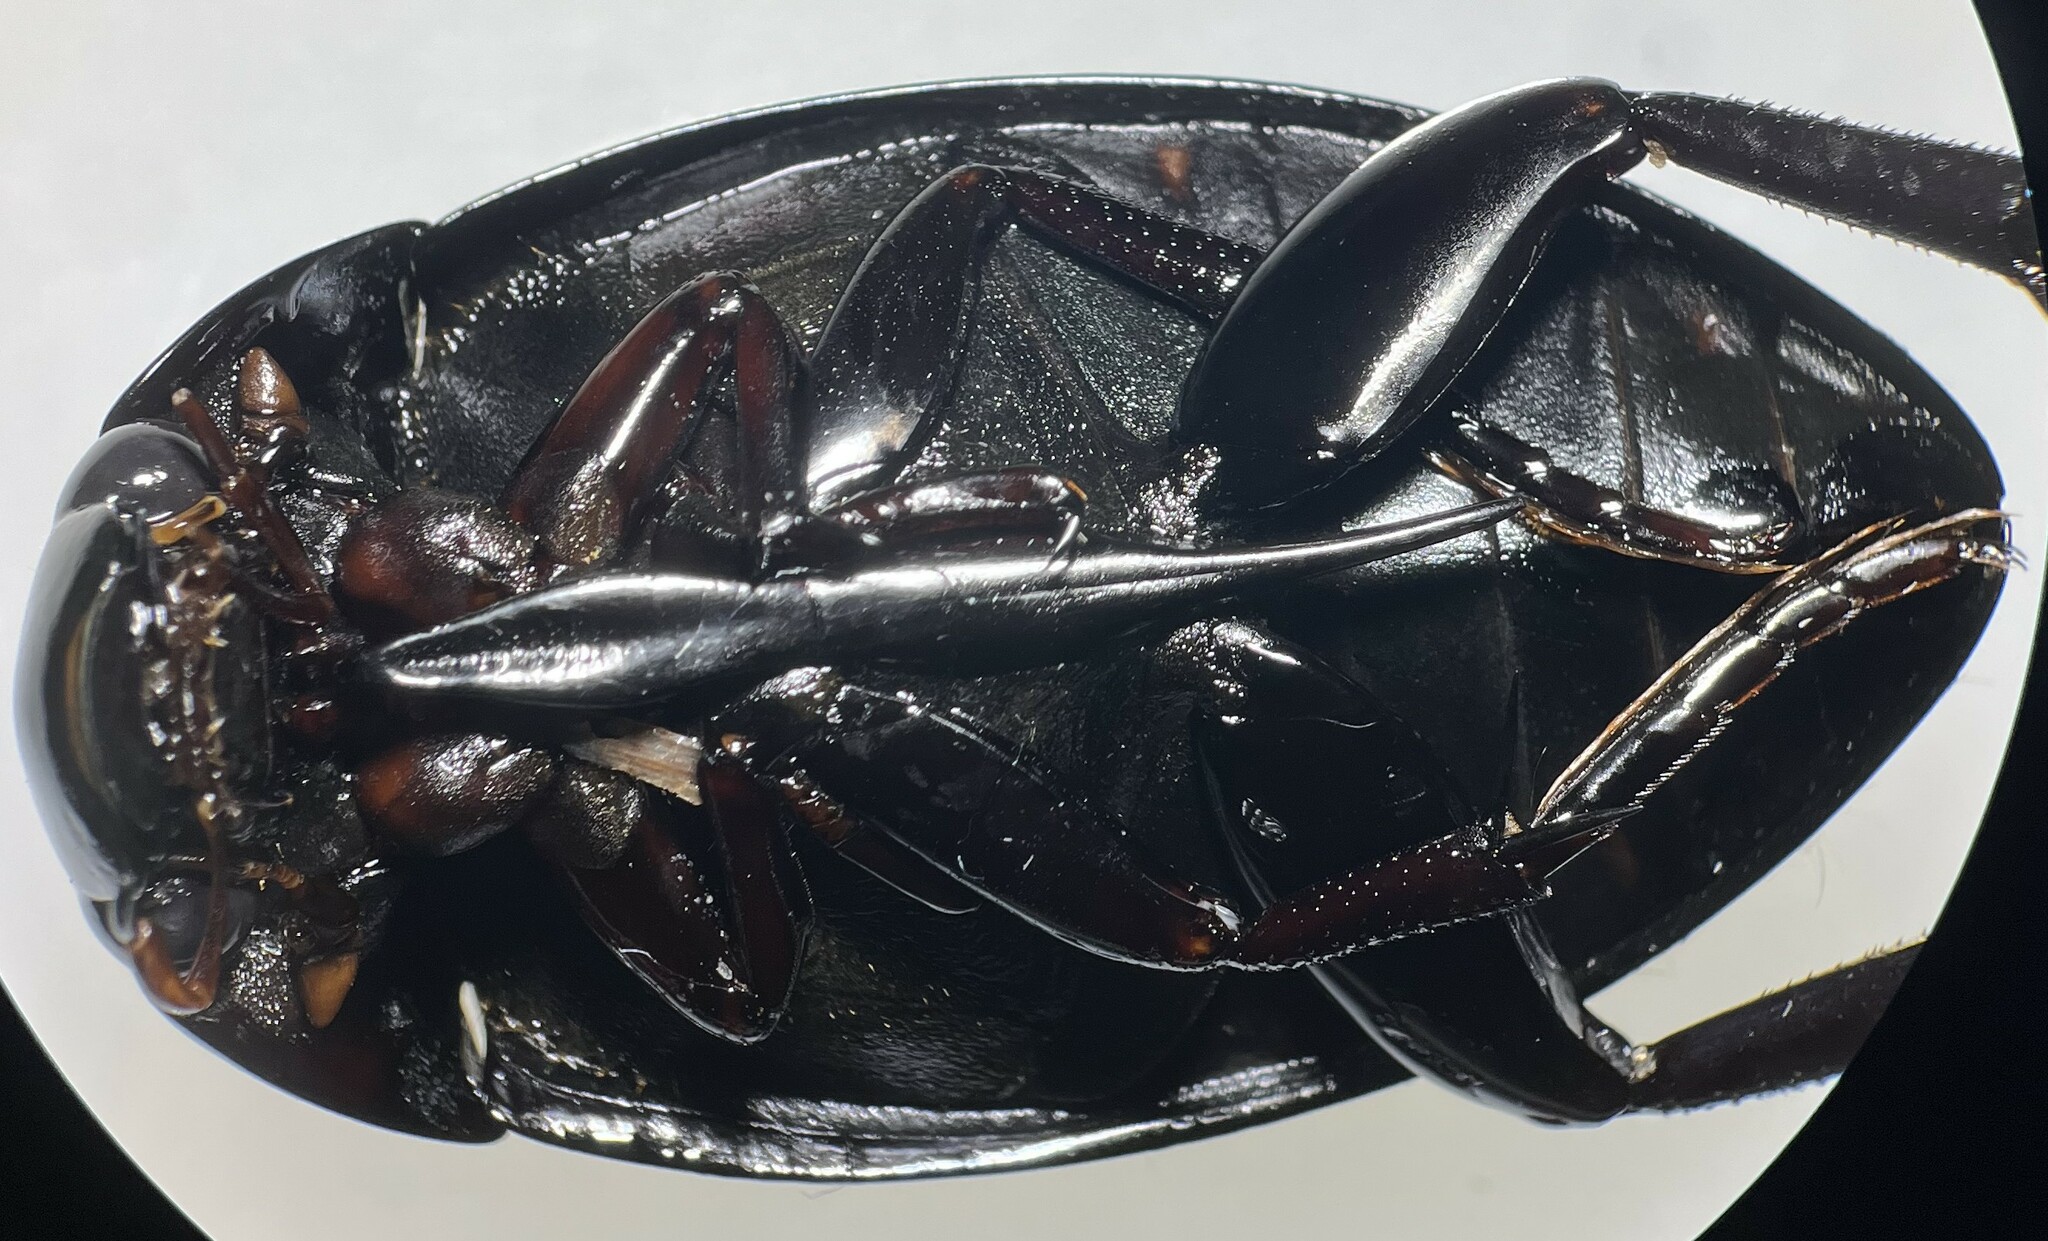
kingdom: Animalia
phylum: Arthropoda
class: Insecta
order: Coleoptera
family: Hydrophilidae
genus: Hydrophilus
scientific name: Hydrophilus ovatus
